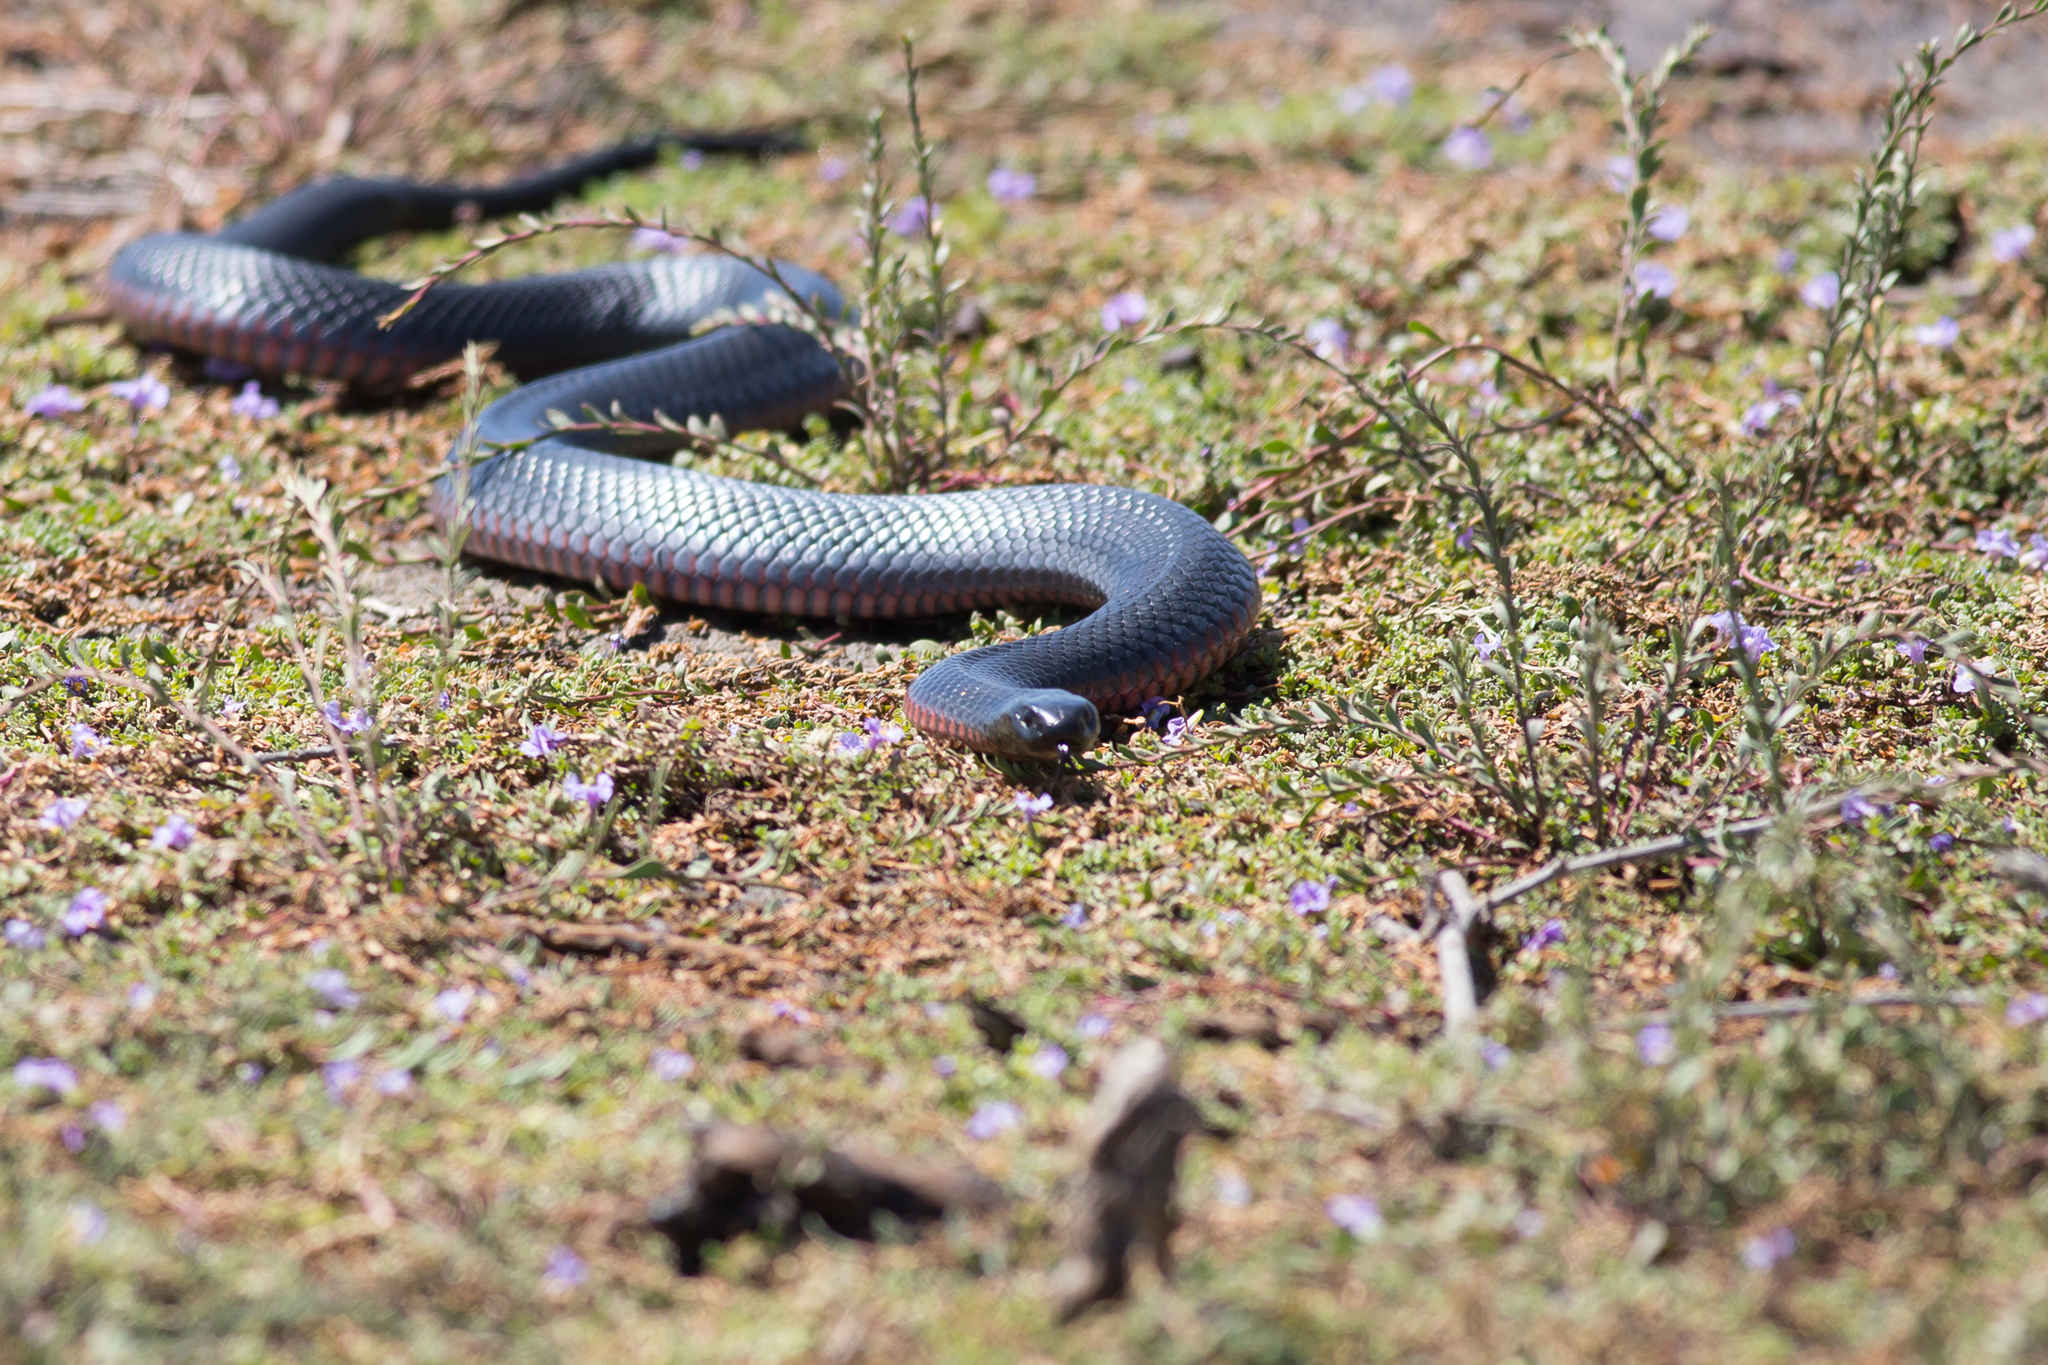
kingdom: Animalia
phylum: Chordata
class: Squamata
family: Elapidae
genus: Pseudechis
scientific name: Pseudechis porphyriacus
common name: Australian black snake
